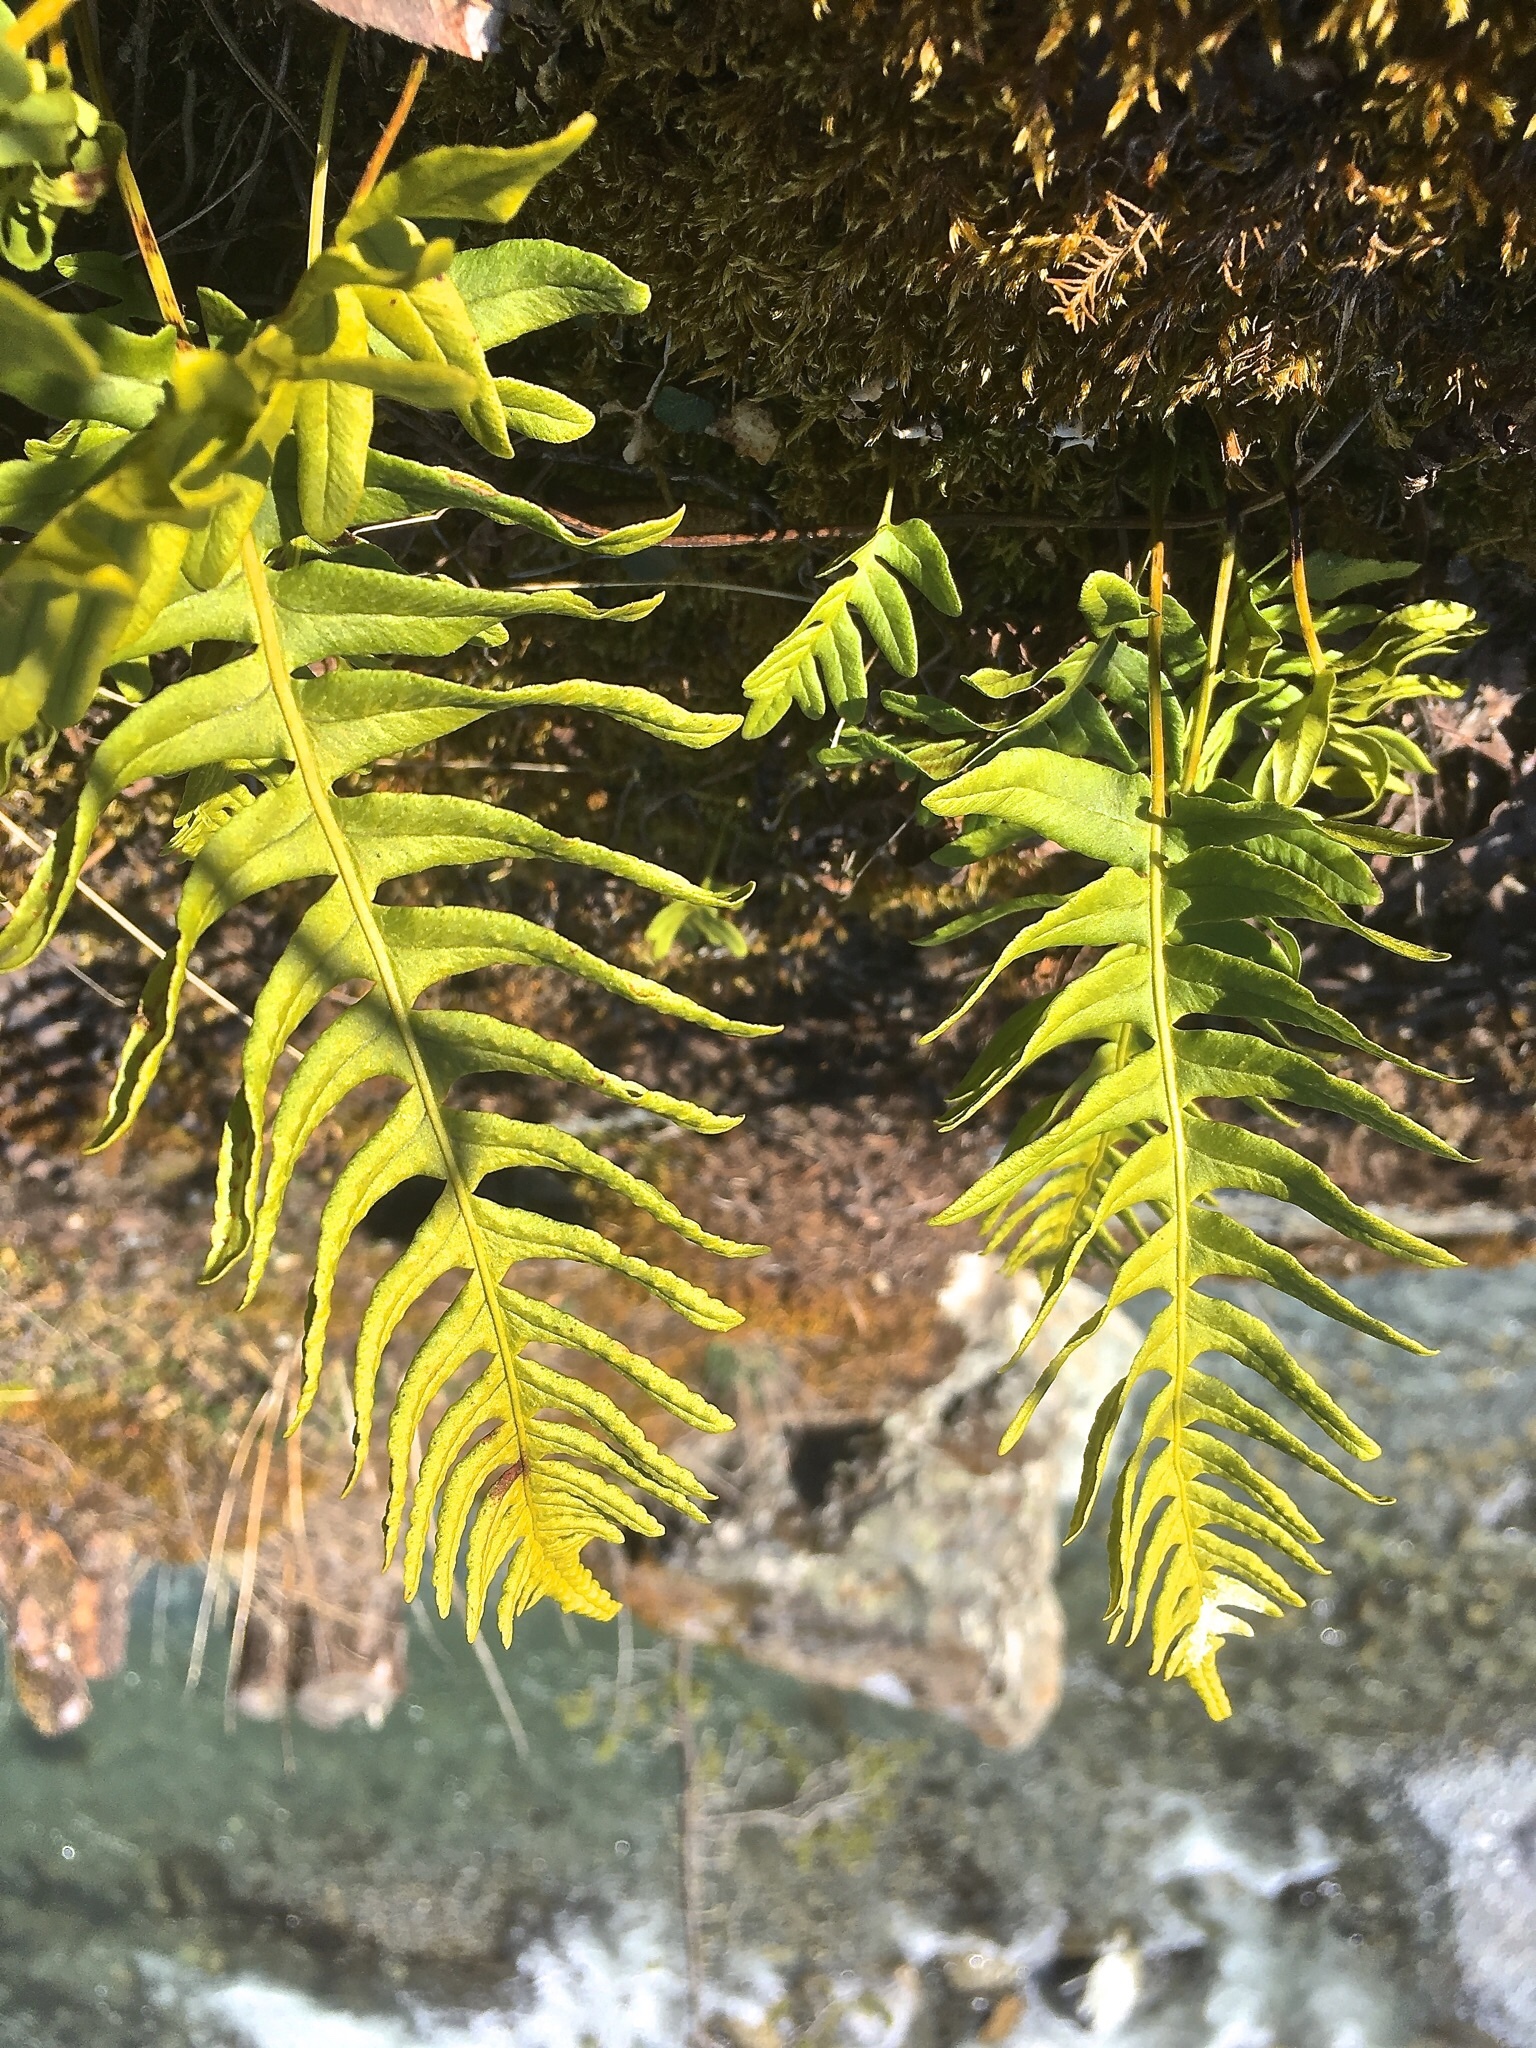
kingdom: Plantae
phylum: Tracheophyta
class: Polypodiopsida
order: Polypodiales
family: Polypodiaceae
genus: Polypodium
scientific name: Polypodium vulgare
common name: Common polypody
